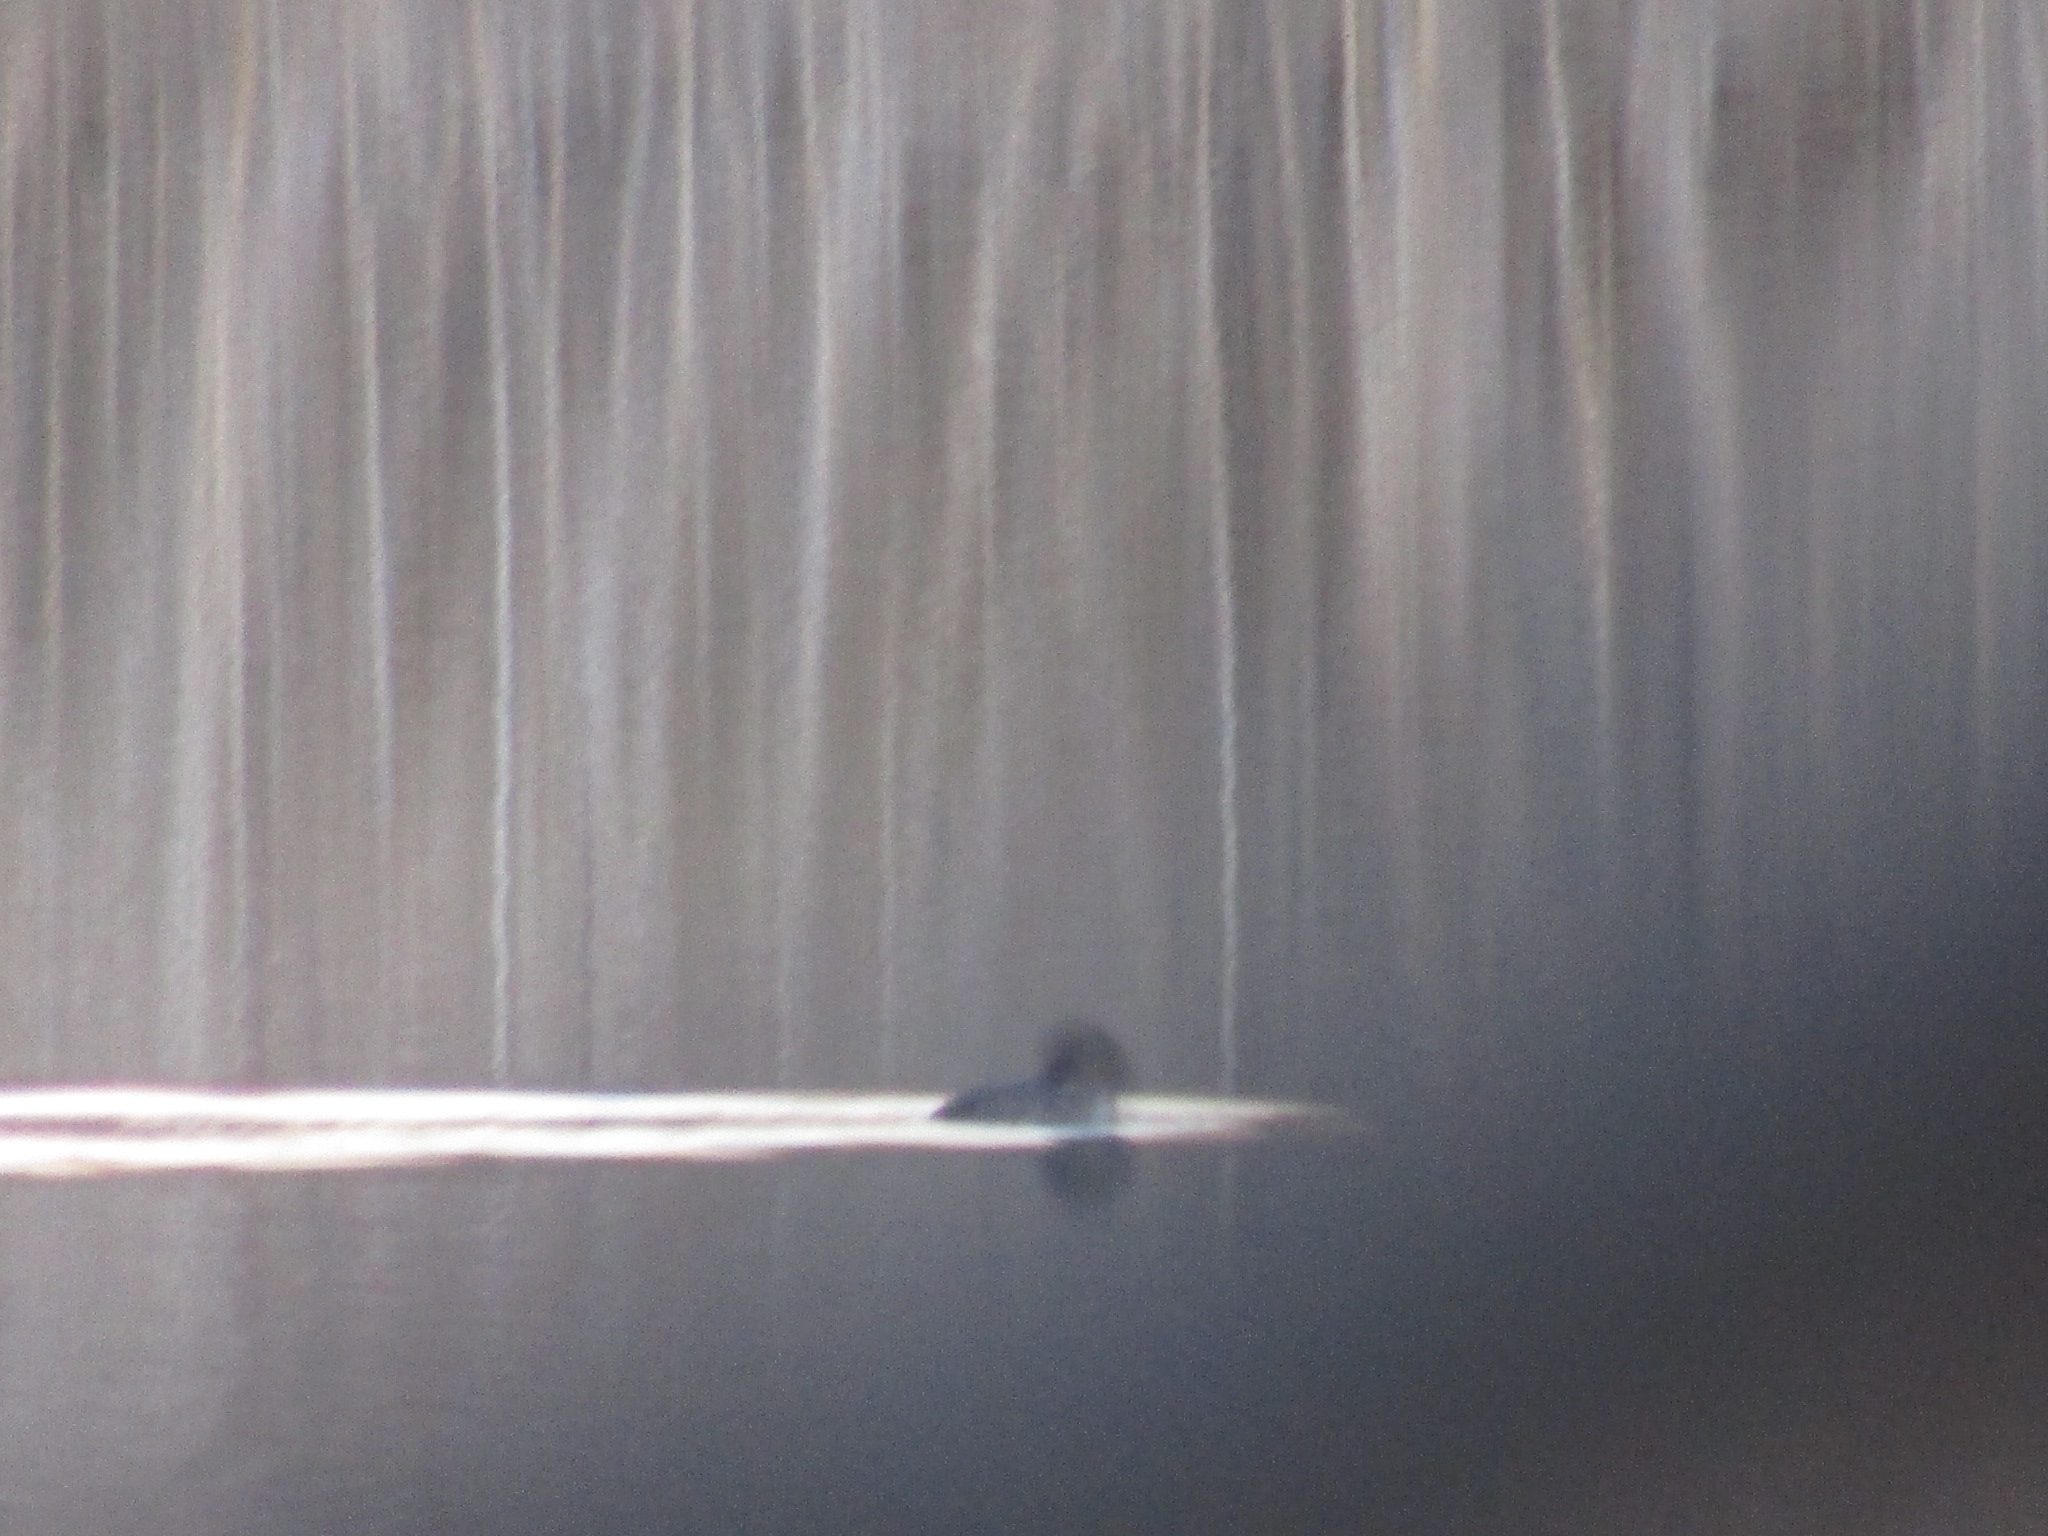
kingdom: Animalia
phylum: Chordata
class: Aves
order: Podicipediformes
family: Podicipedidae
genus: Podilymbus
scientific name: Podilymbus podiceps
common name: Pied-billed grebe
